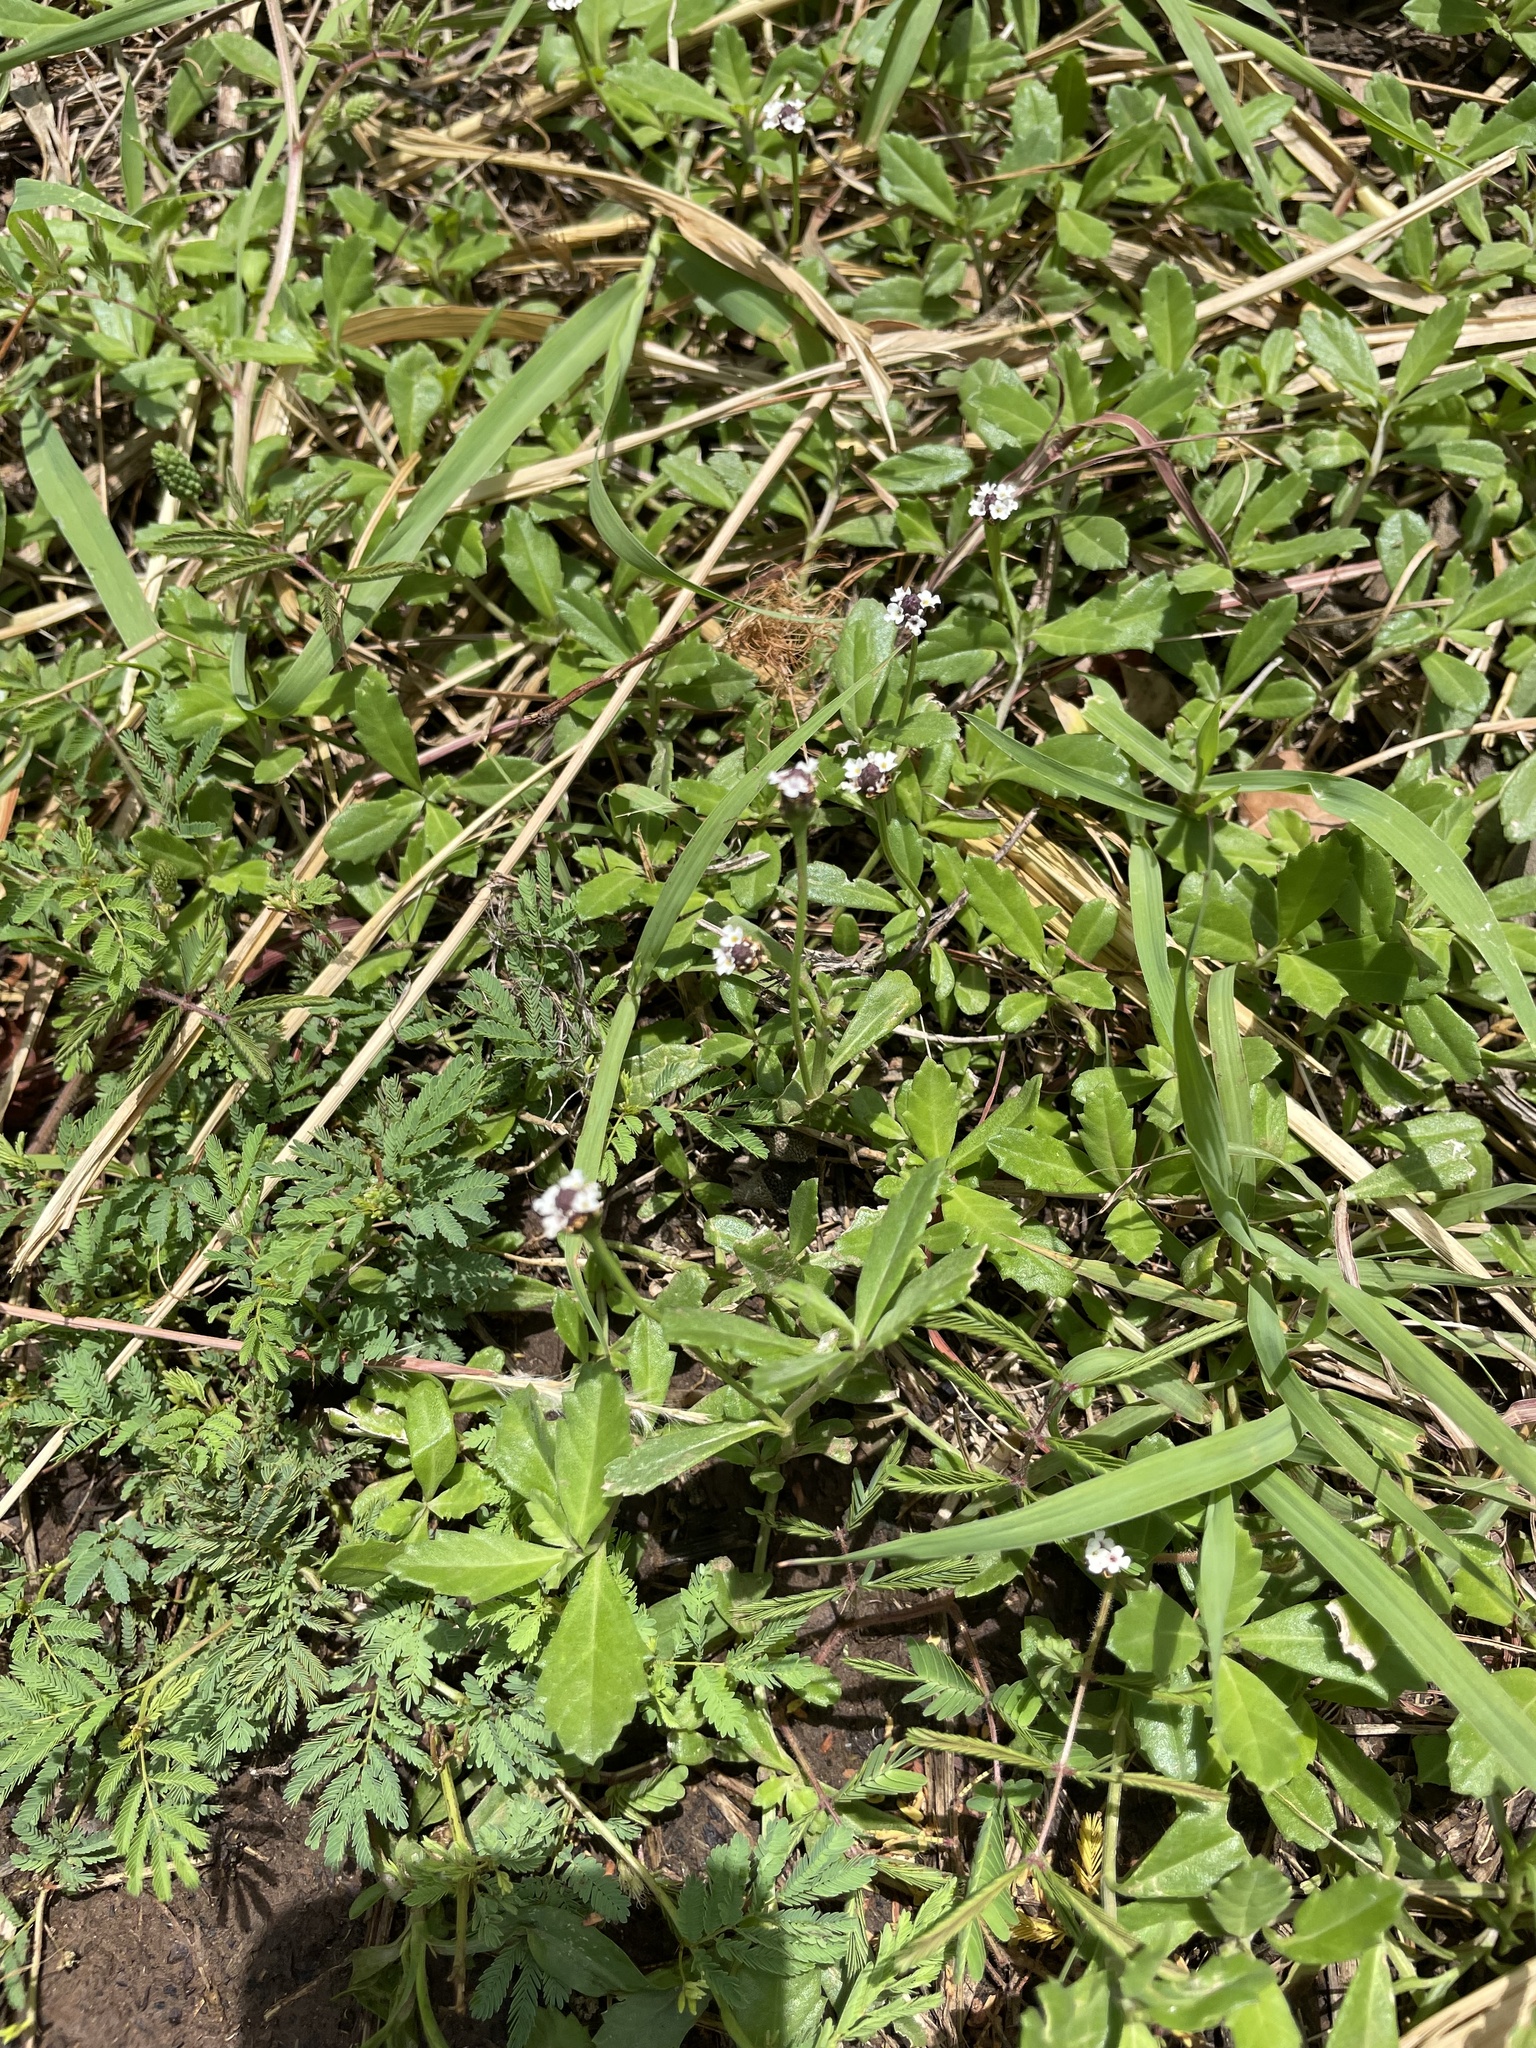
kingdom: Plantae
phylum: Tracheophyta
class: Magnoliopsida
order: Lamiales
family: Verbenaceae
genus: Phyla
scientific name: Phyla nodiflora
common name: Frogfruit
